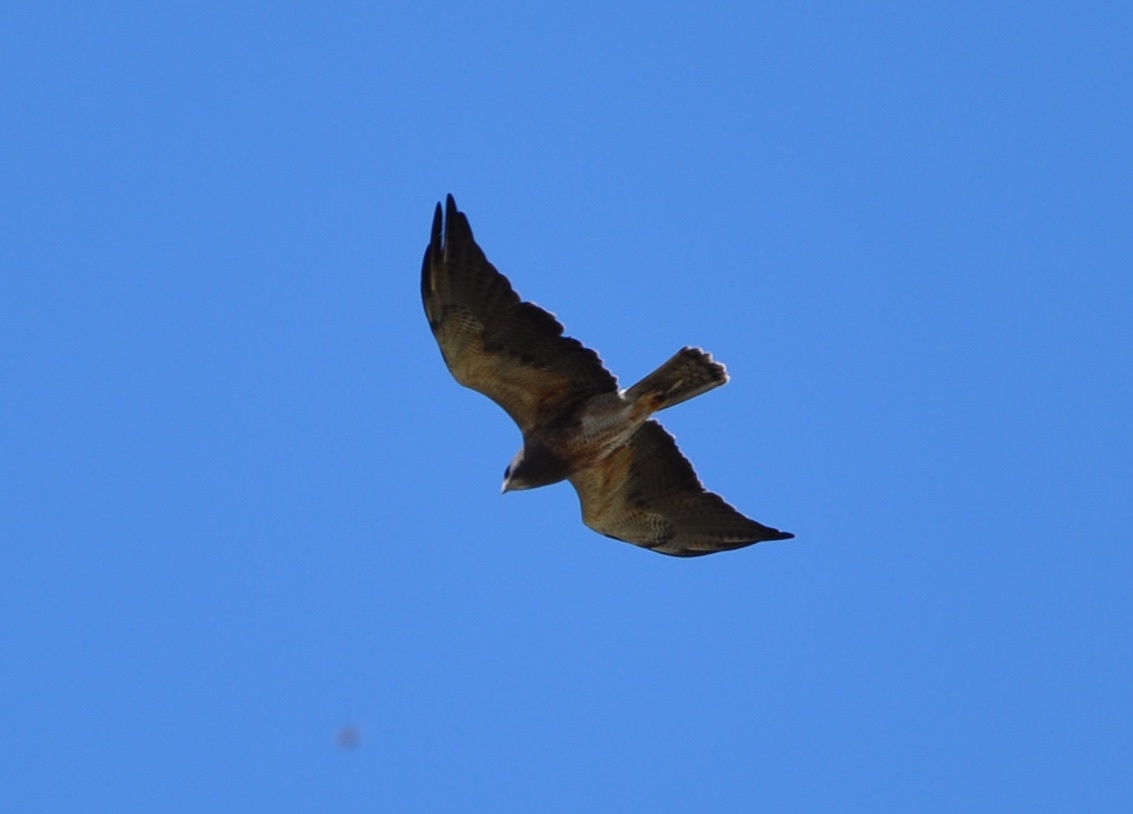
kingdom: Animalia
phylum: Chordata
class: Aves
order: Accipitriformes
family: Accipitridae
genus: Buteo
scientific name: Buteo swainsoni
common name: Swainson's hawk
